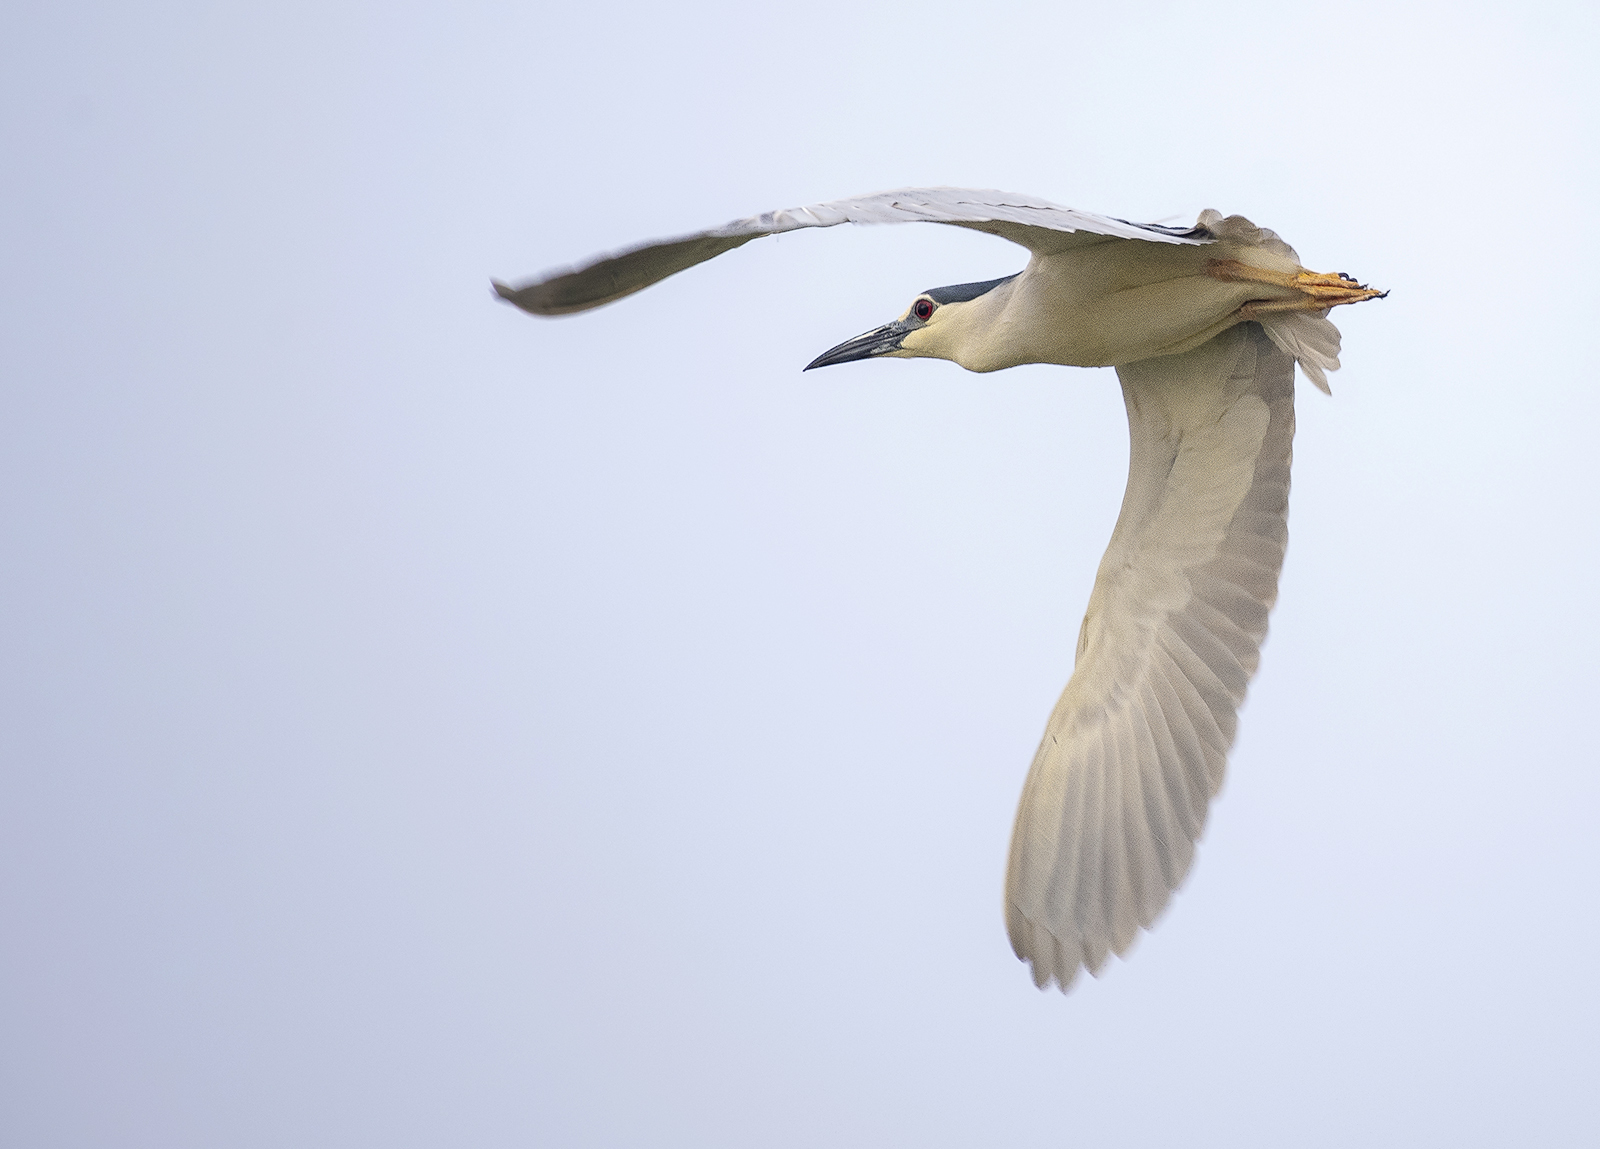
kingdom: Animalia
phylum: Chordata
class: Aves
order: Pelecaniformes
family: Ardeidae
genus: Nycticorax
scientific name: Nycticorax nycticorax
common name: Black-crowned night heron
